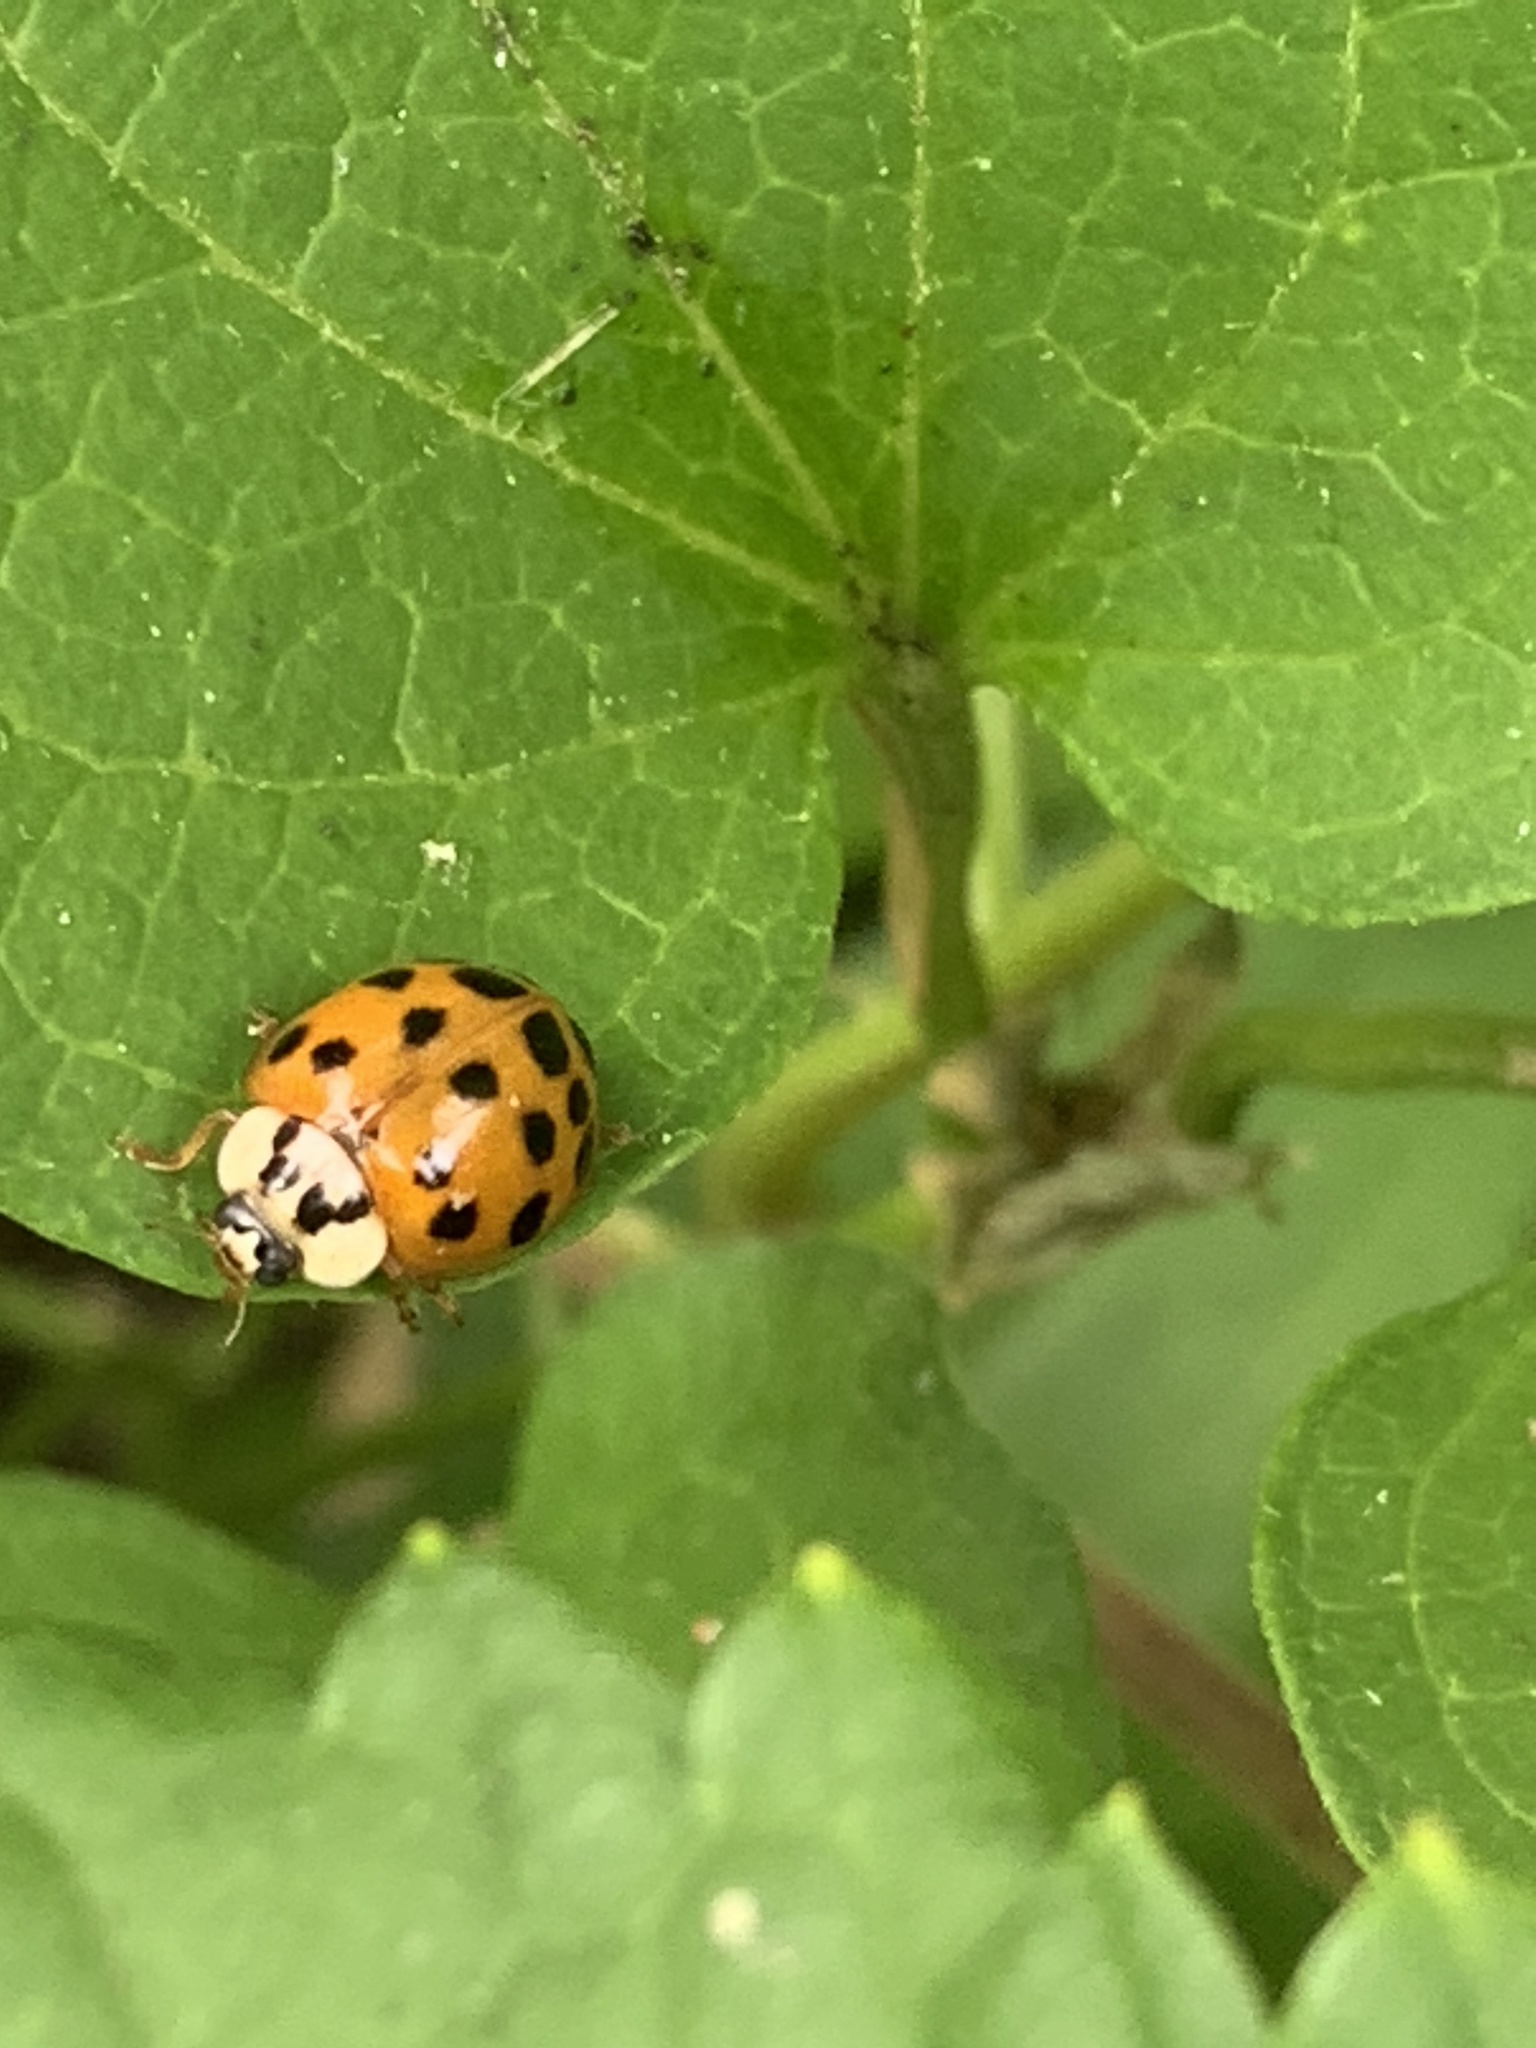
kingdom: Animalia
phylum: Arthropoda
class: Insecta
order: Coleoptera
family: Coccinellidae
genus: Harmonia
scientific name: Harmonia axyridis
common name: Harlequin ladybird
